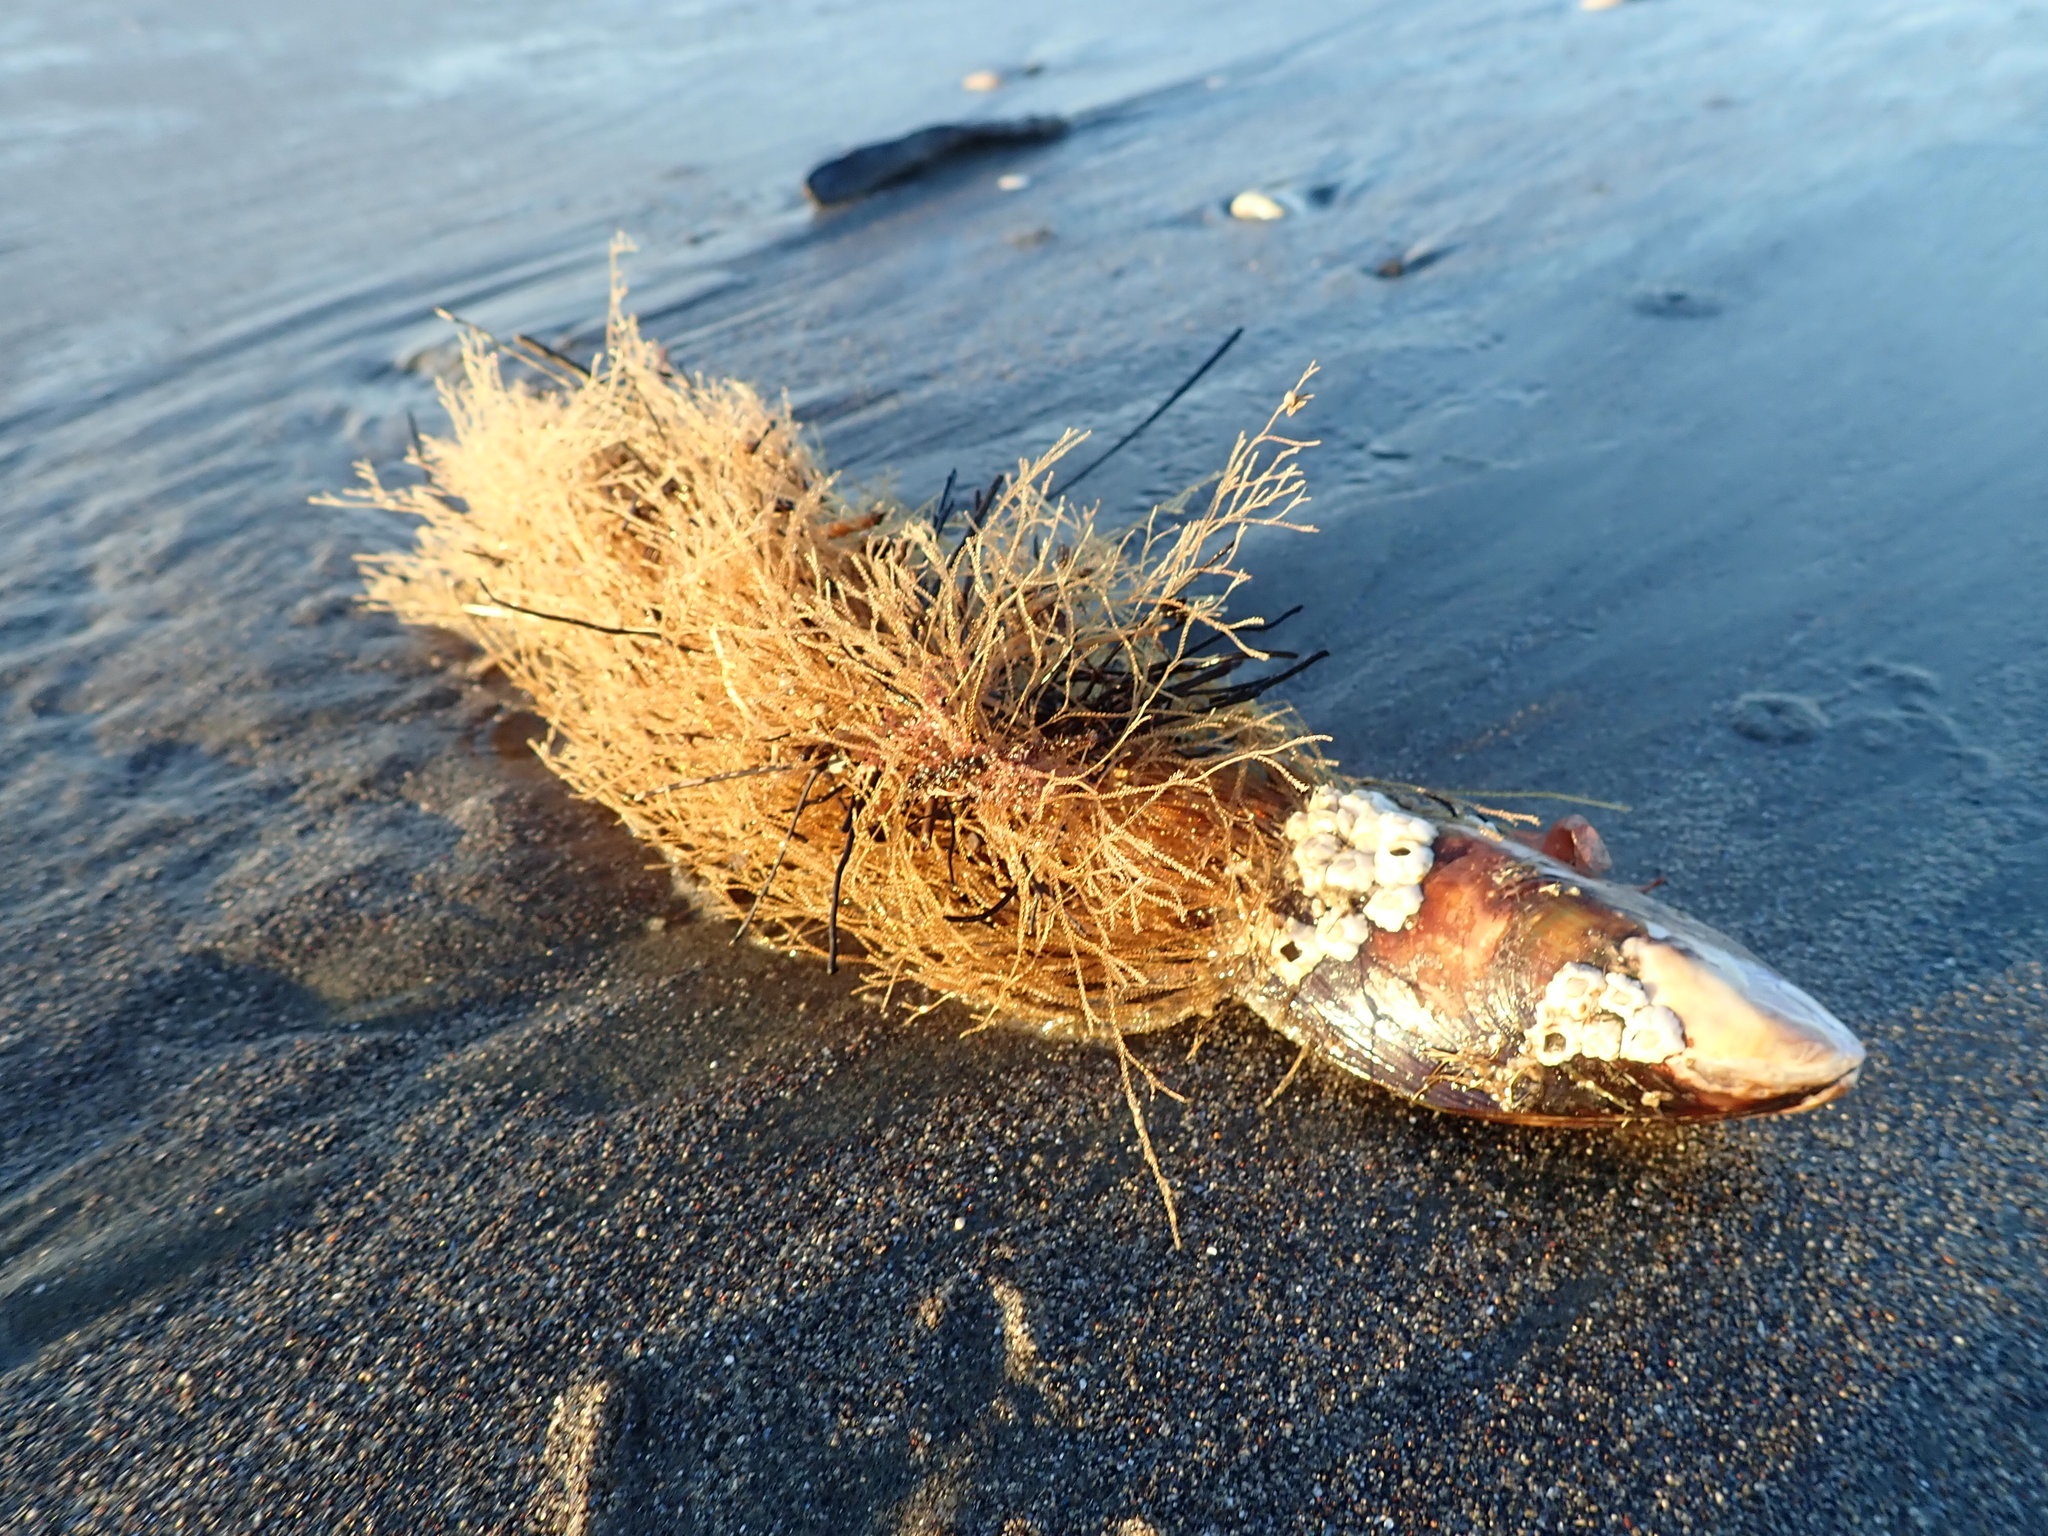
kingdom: Animalia
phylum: Cnidaria
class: Hydrozoa
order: Leptothecata
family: Sertulariidae
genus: Amphisbetia
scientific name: Amphisbetia bispinosa
